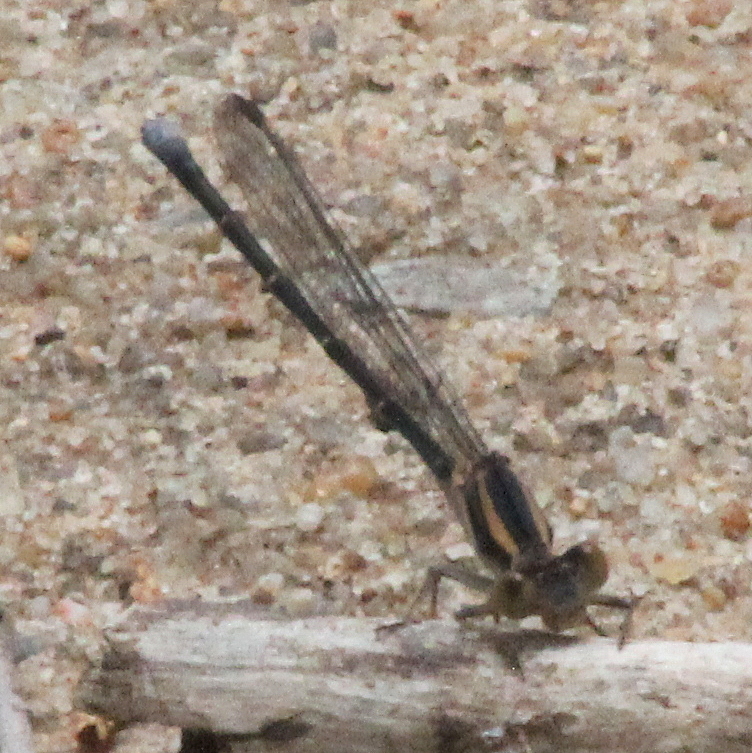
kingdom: Animalia
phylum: Arthropoda
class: Insecta
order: Odonata
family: Coenagrionidae
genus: Argia
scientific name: Argia moesta
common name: Powdered dancer
